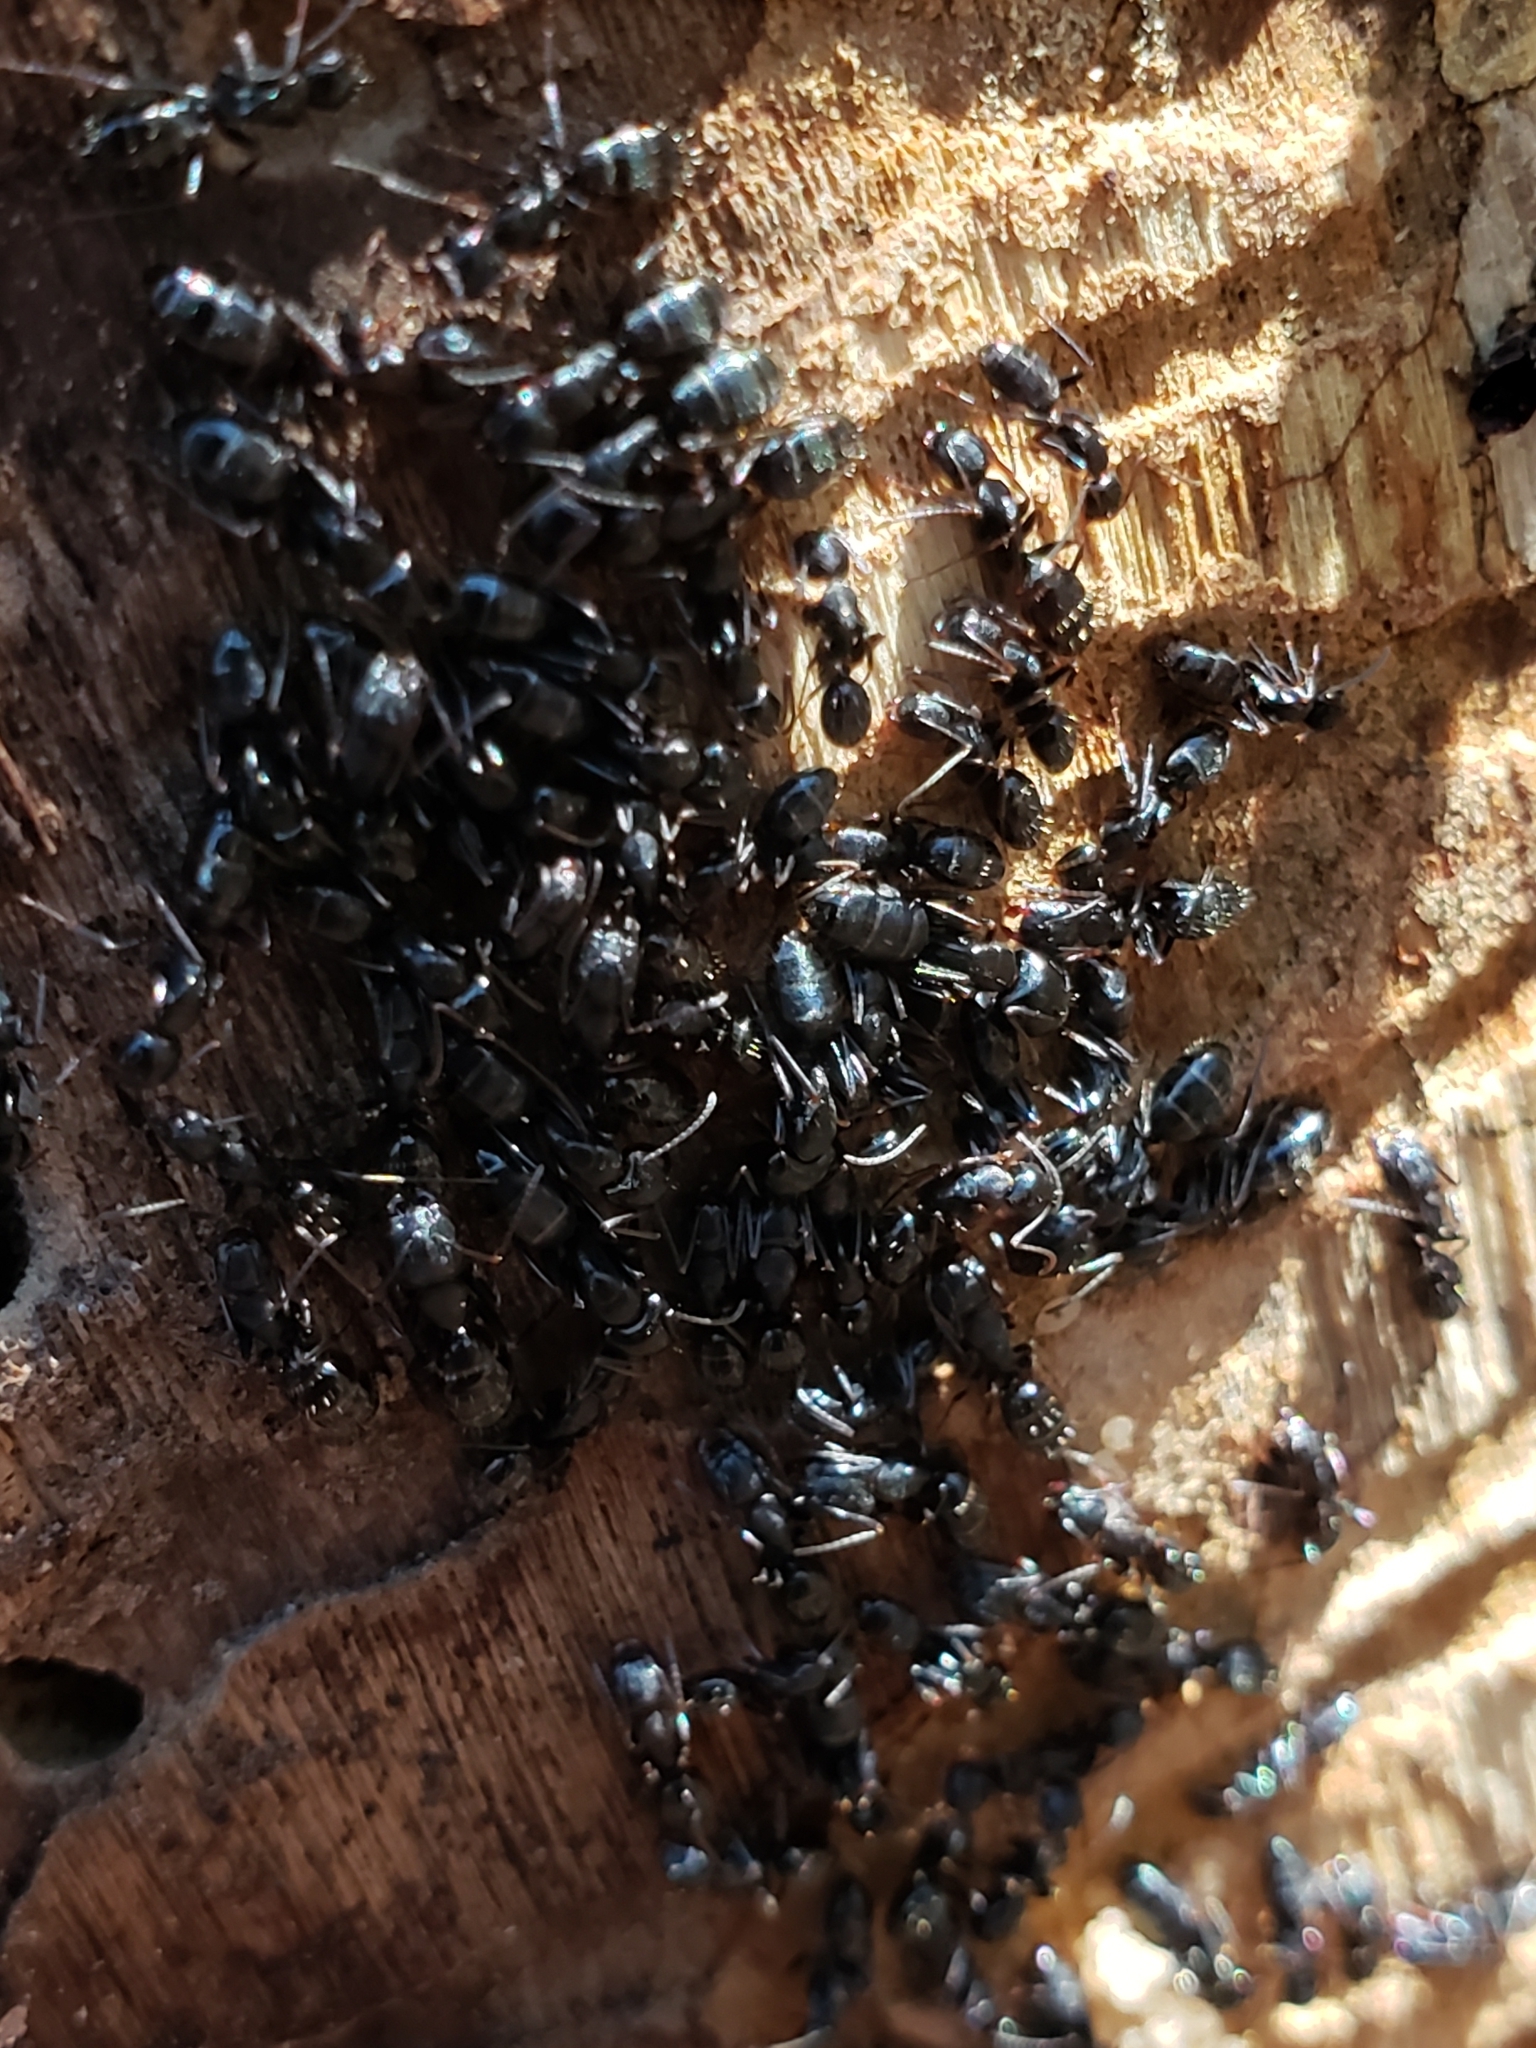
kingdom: Animalia
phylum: Arthropoda
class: Insecta
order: Hymenoptera
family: Formicidae
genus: Camponotus
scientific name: Camponotus nearcticus
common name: Smaller carpenter ant
